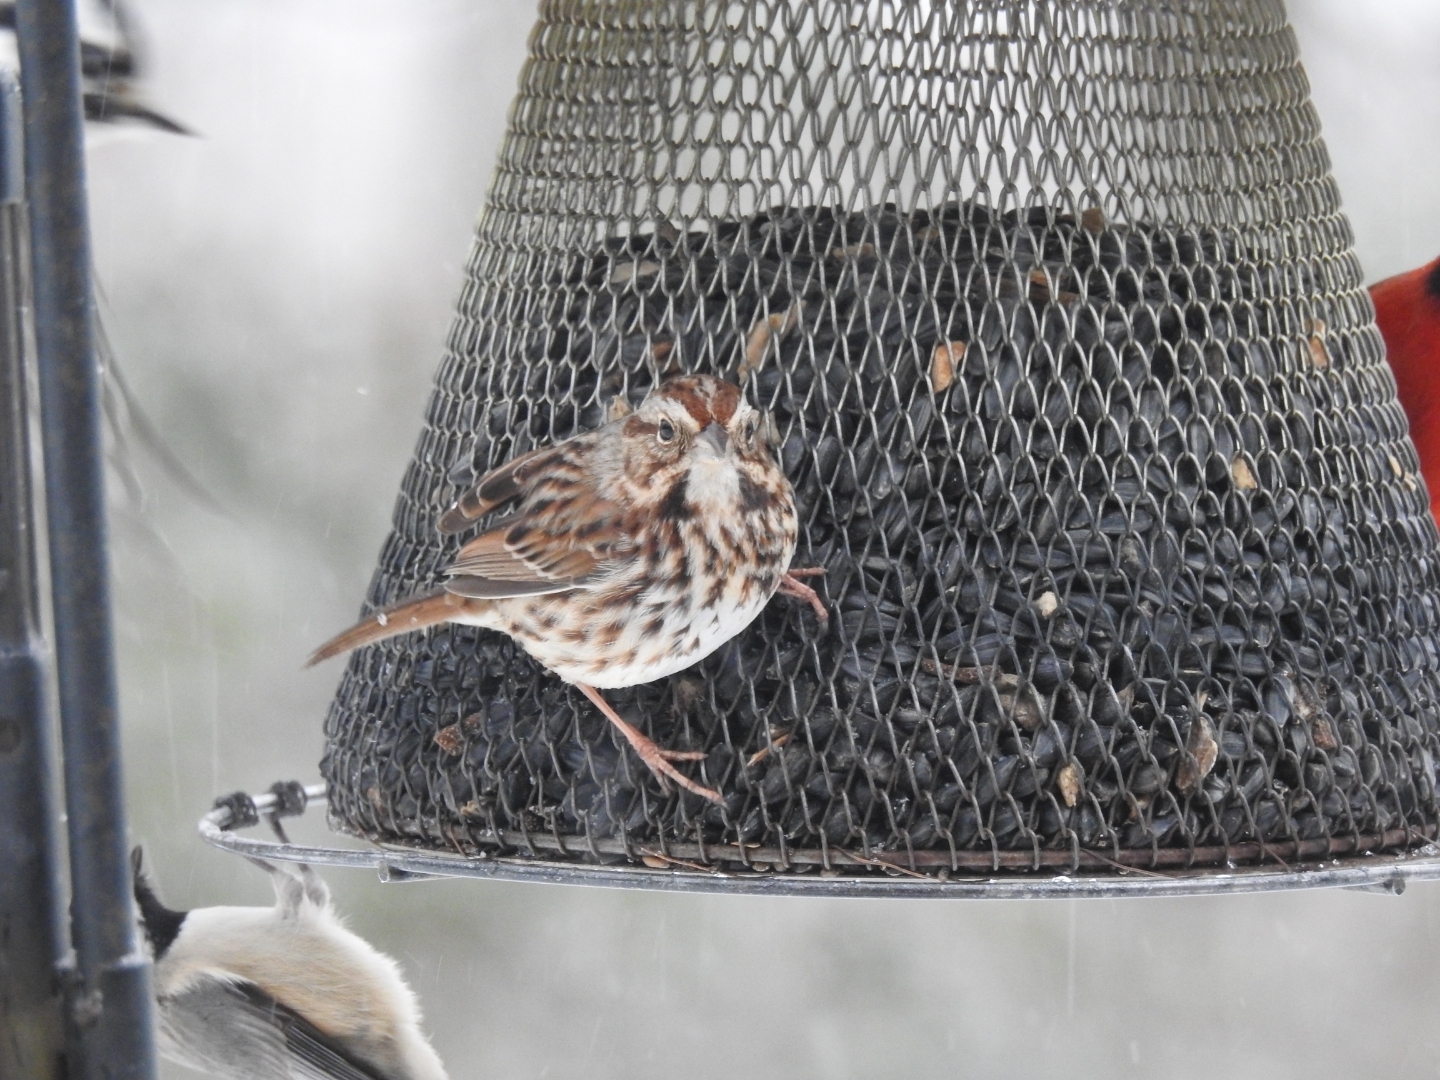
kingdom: Animalia
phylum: Chordata
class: Aves
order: Passeriformes
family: Passerellidae
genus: Melospiza
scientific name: Melospiza melodia
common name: Song sparrow
